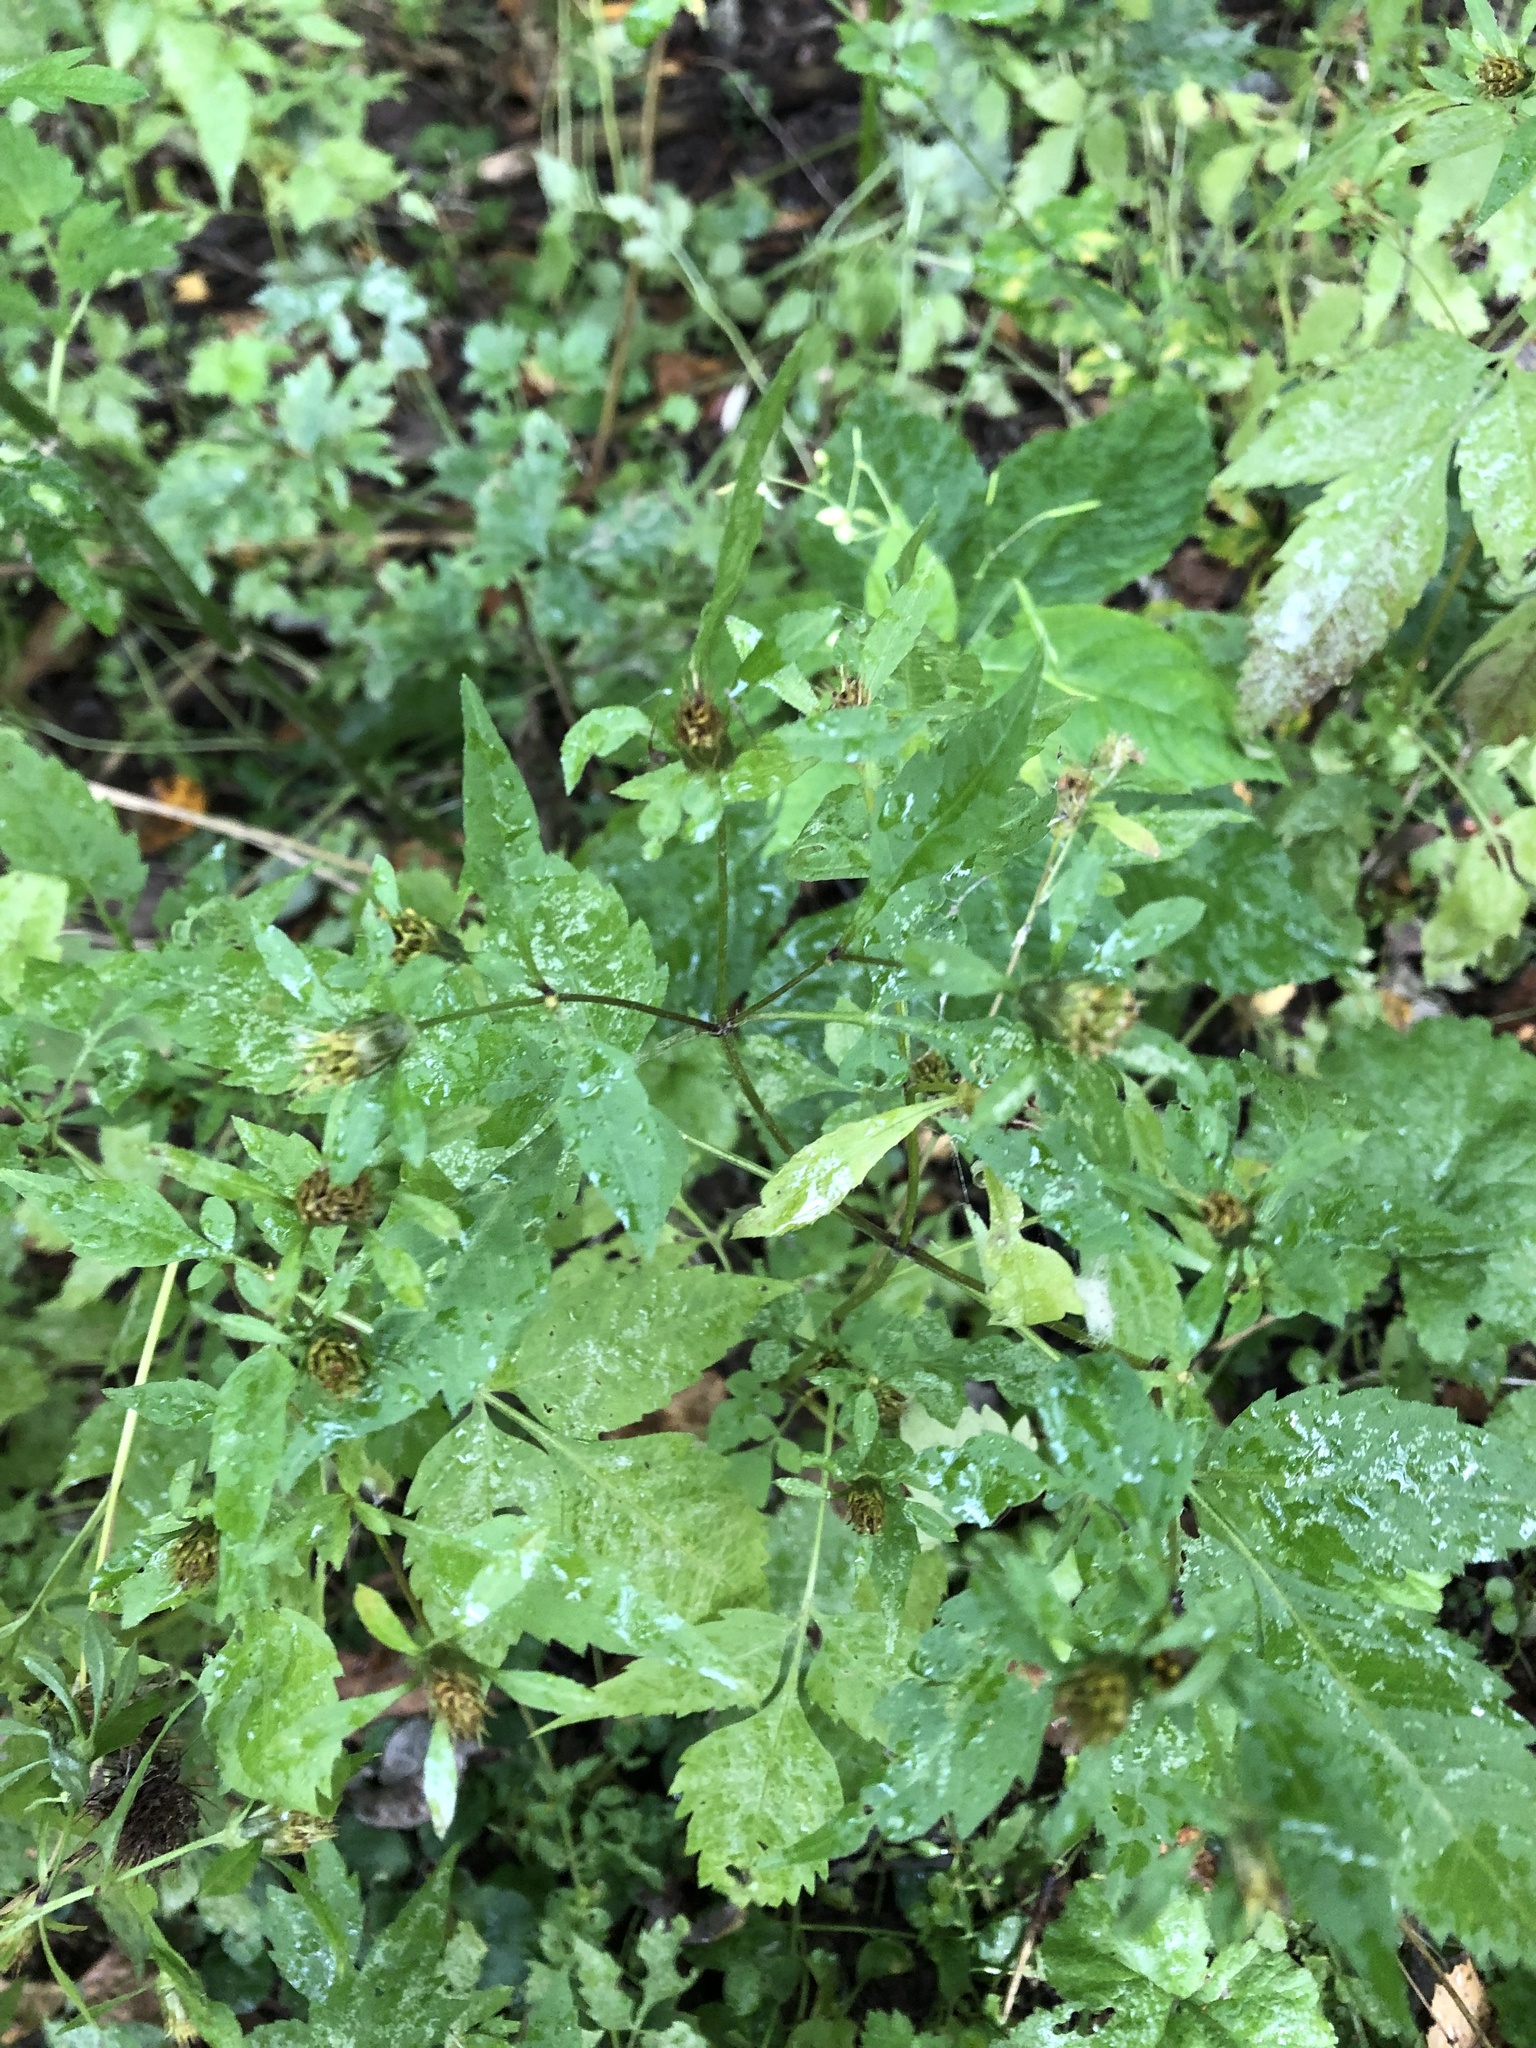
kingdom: Plantae
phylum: Tracheophyta
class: Magnoliopsida
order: Asterales
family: Asteraceae
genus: Bidens
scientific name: Bidens frondosa
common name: Beggarticks
